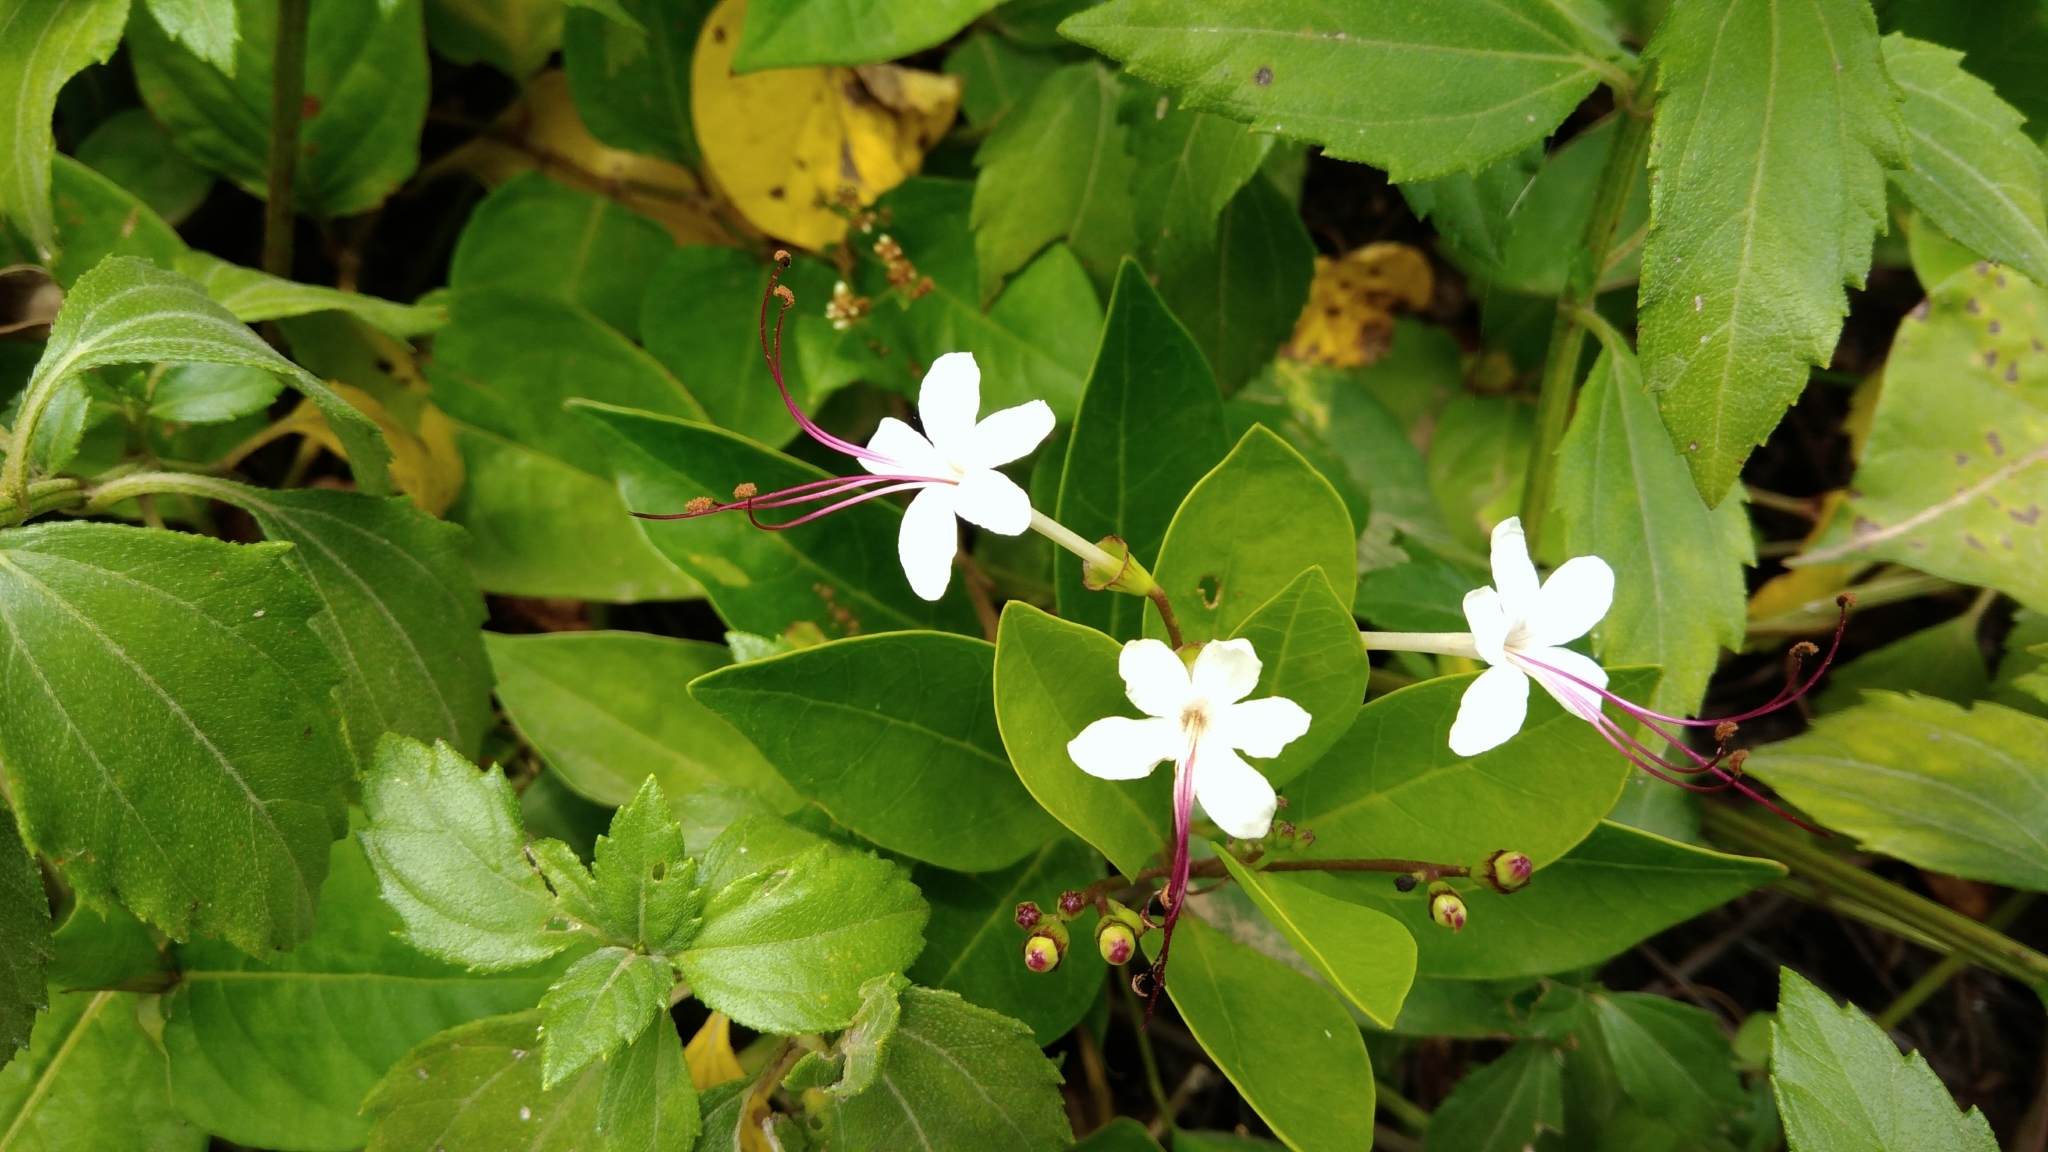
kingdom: Plantae
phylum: Tracheophyta
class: Magnoliopsida
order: Lamiales
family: Lamiaceae
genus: Volkameria
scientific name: Volkameria inermis
